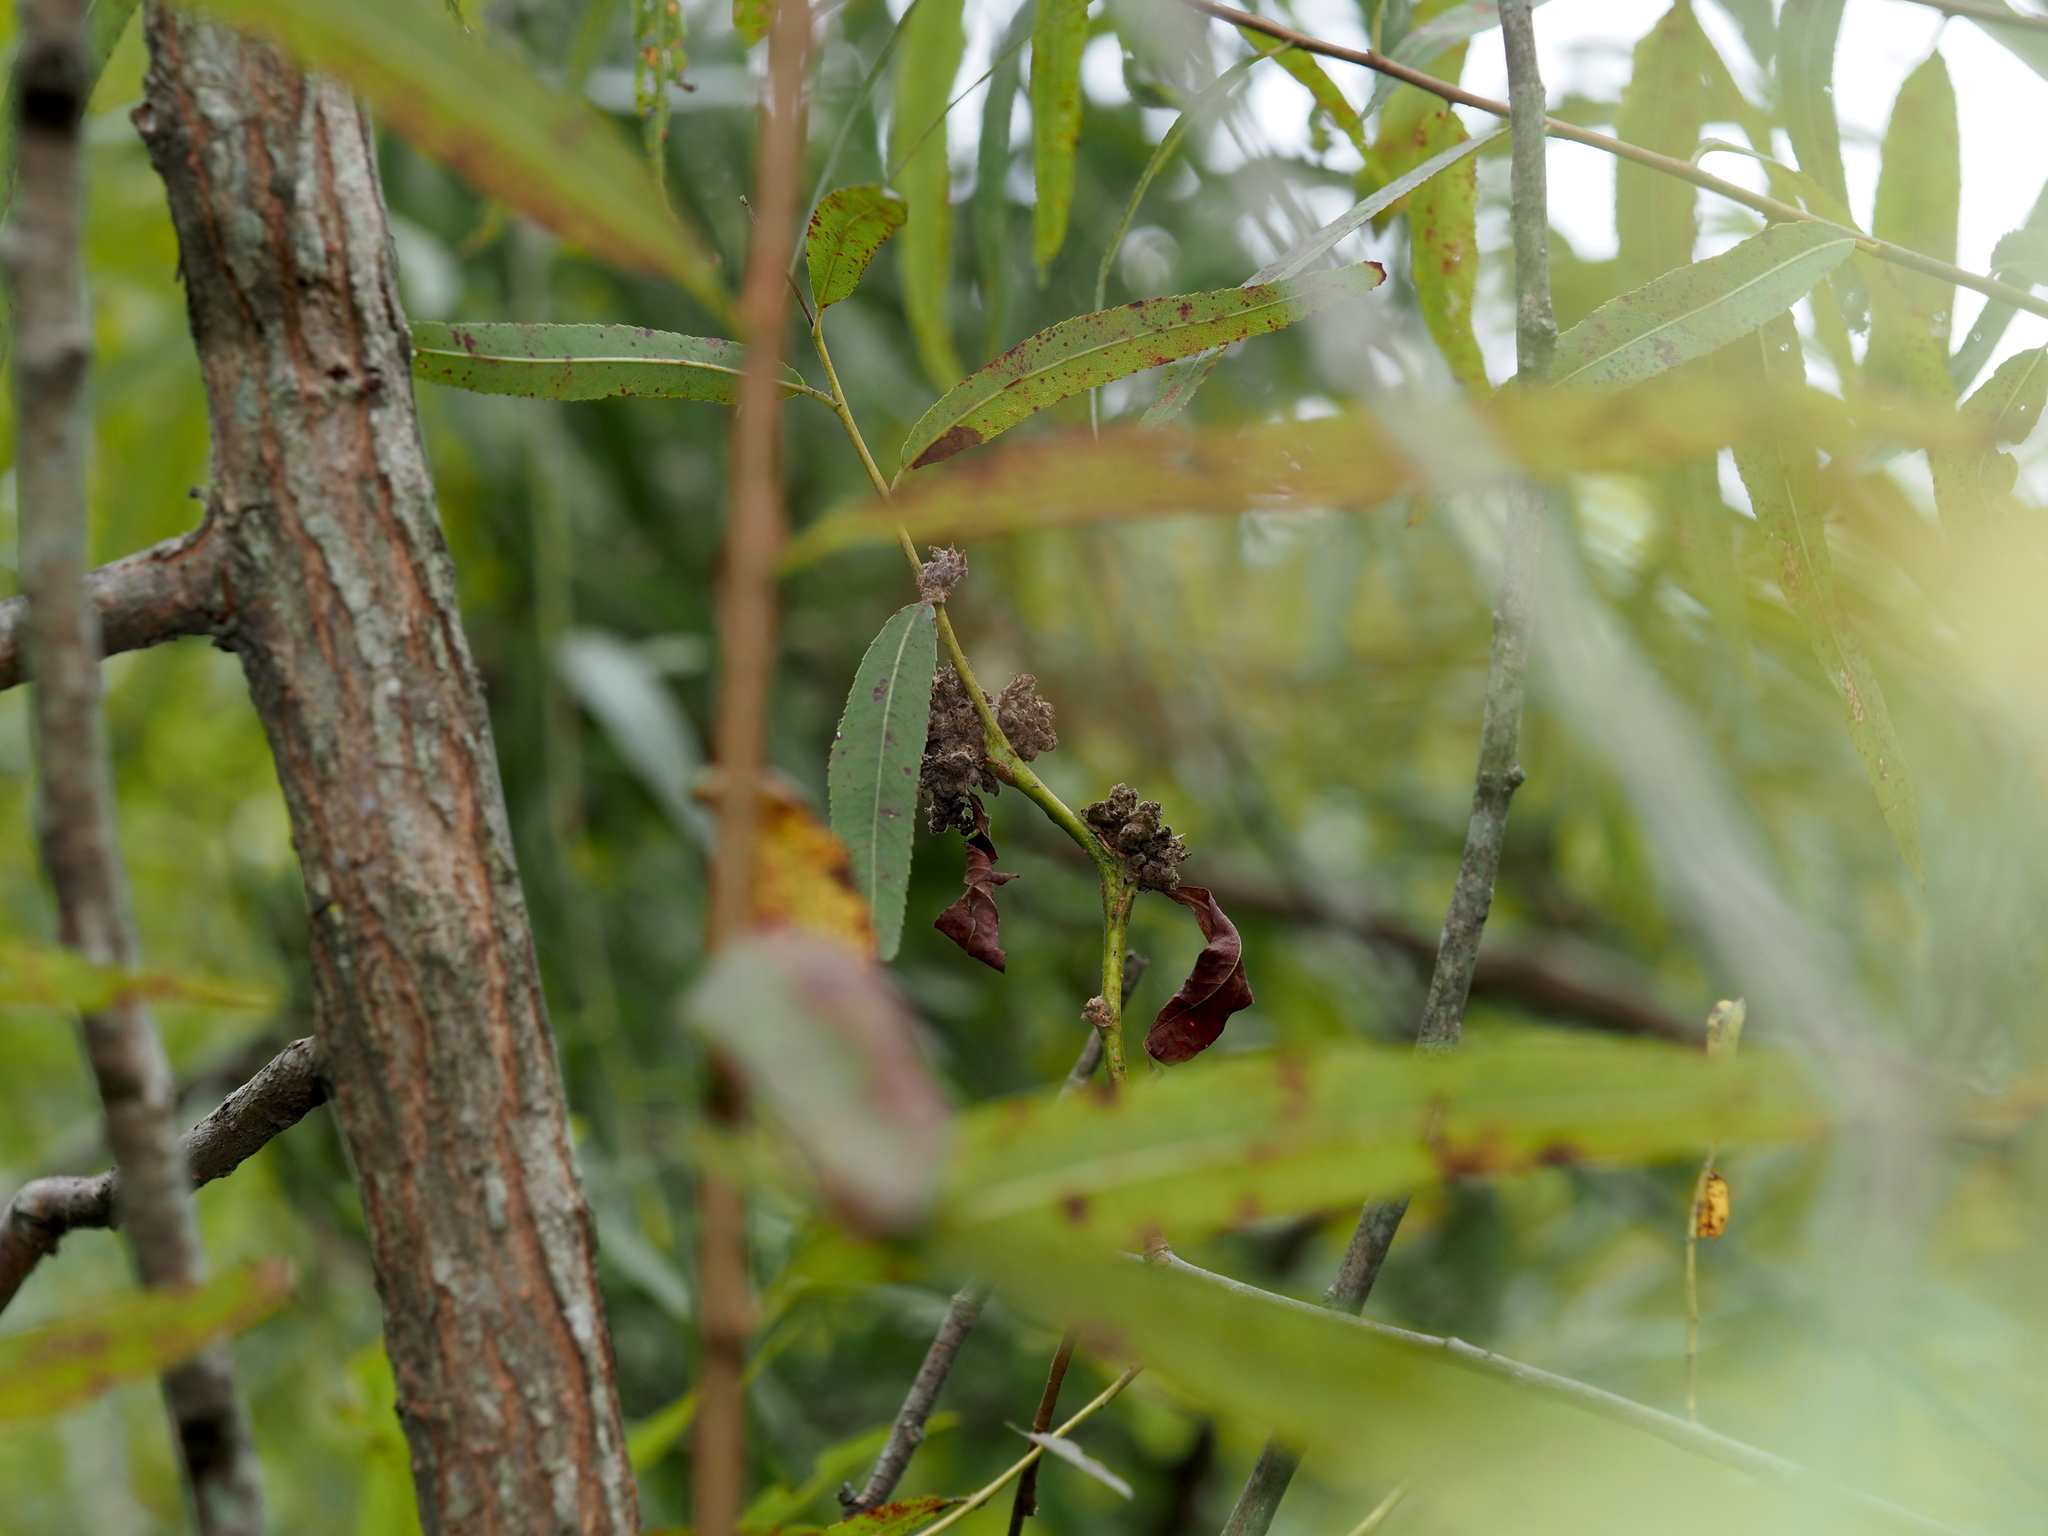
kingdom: Animalia
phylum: Arthropoda
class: Arachnida
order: Trombidiformes
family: Eriophyidae
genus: Aculops
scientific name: Aculops
